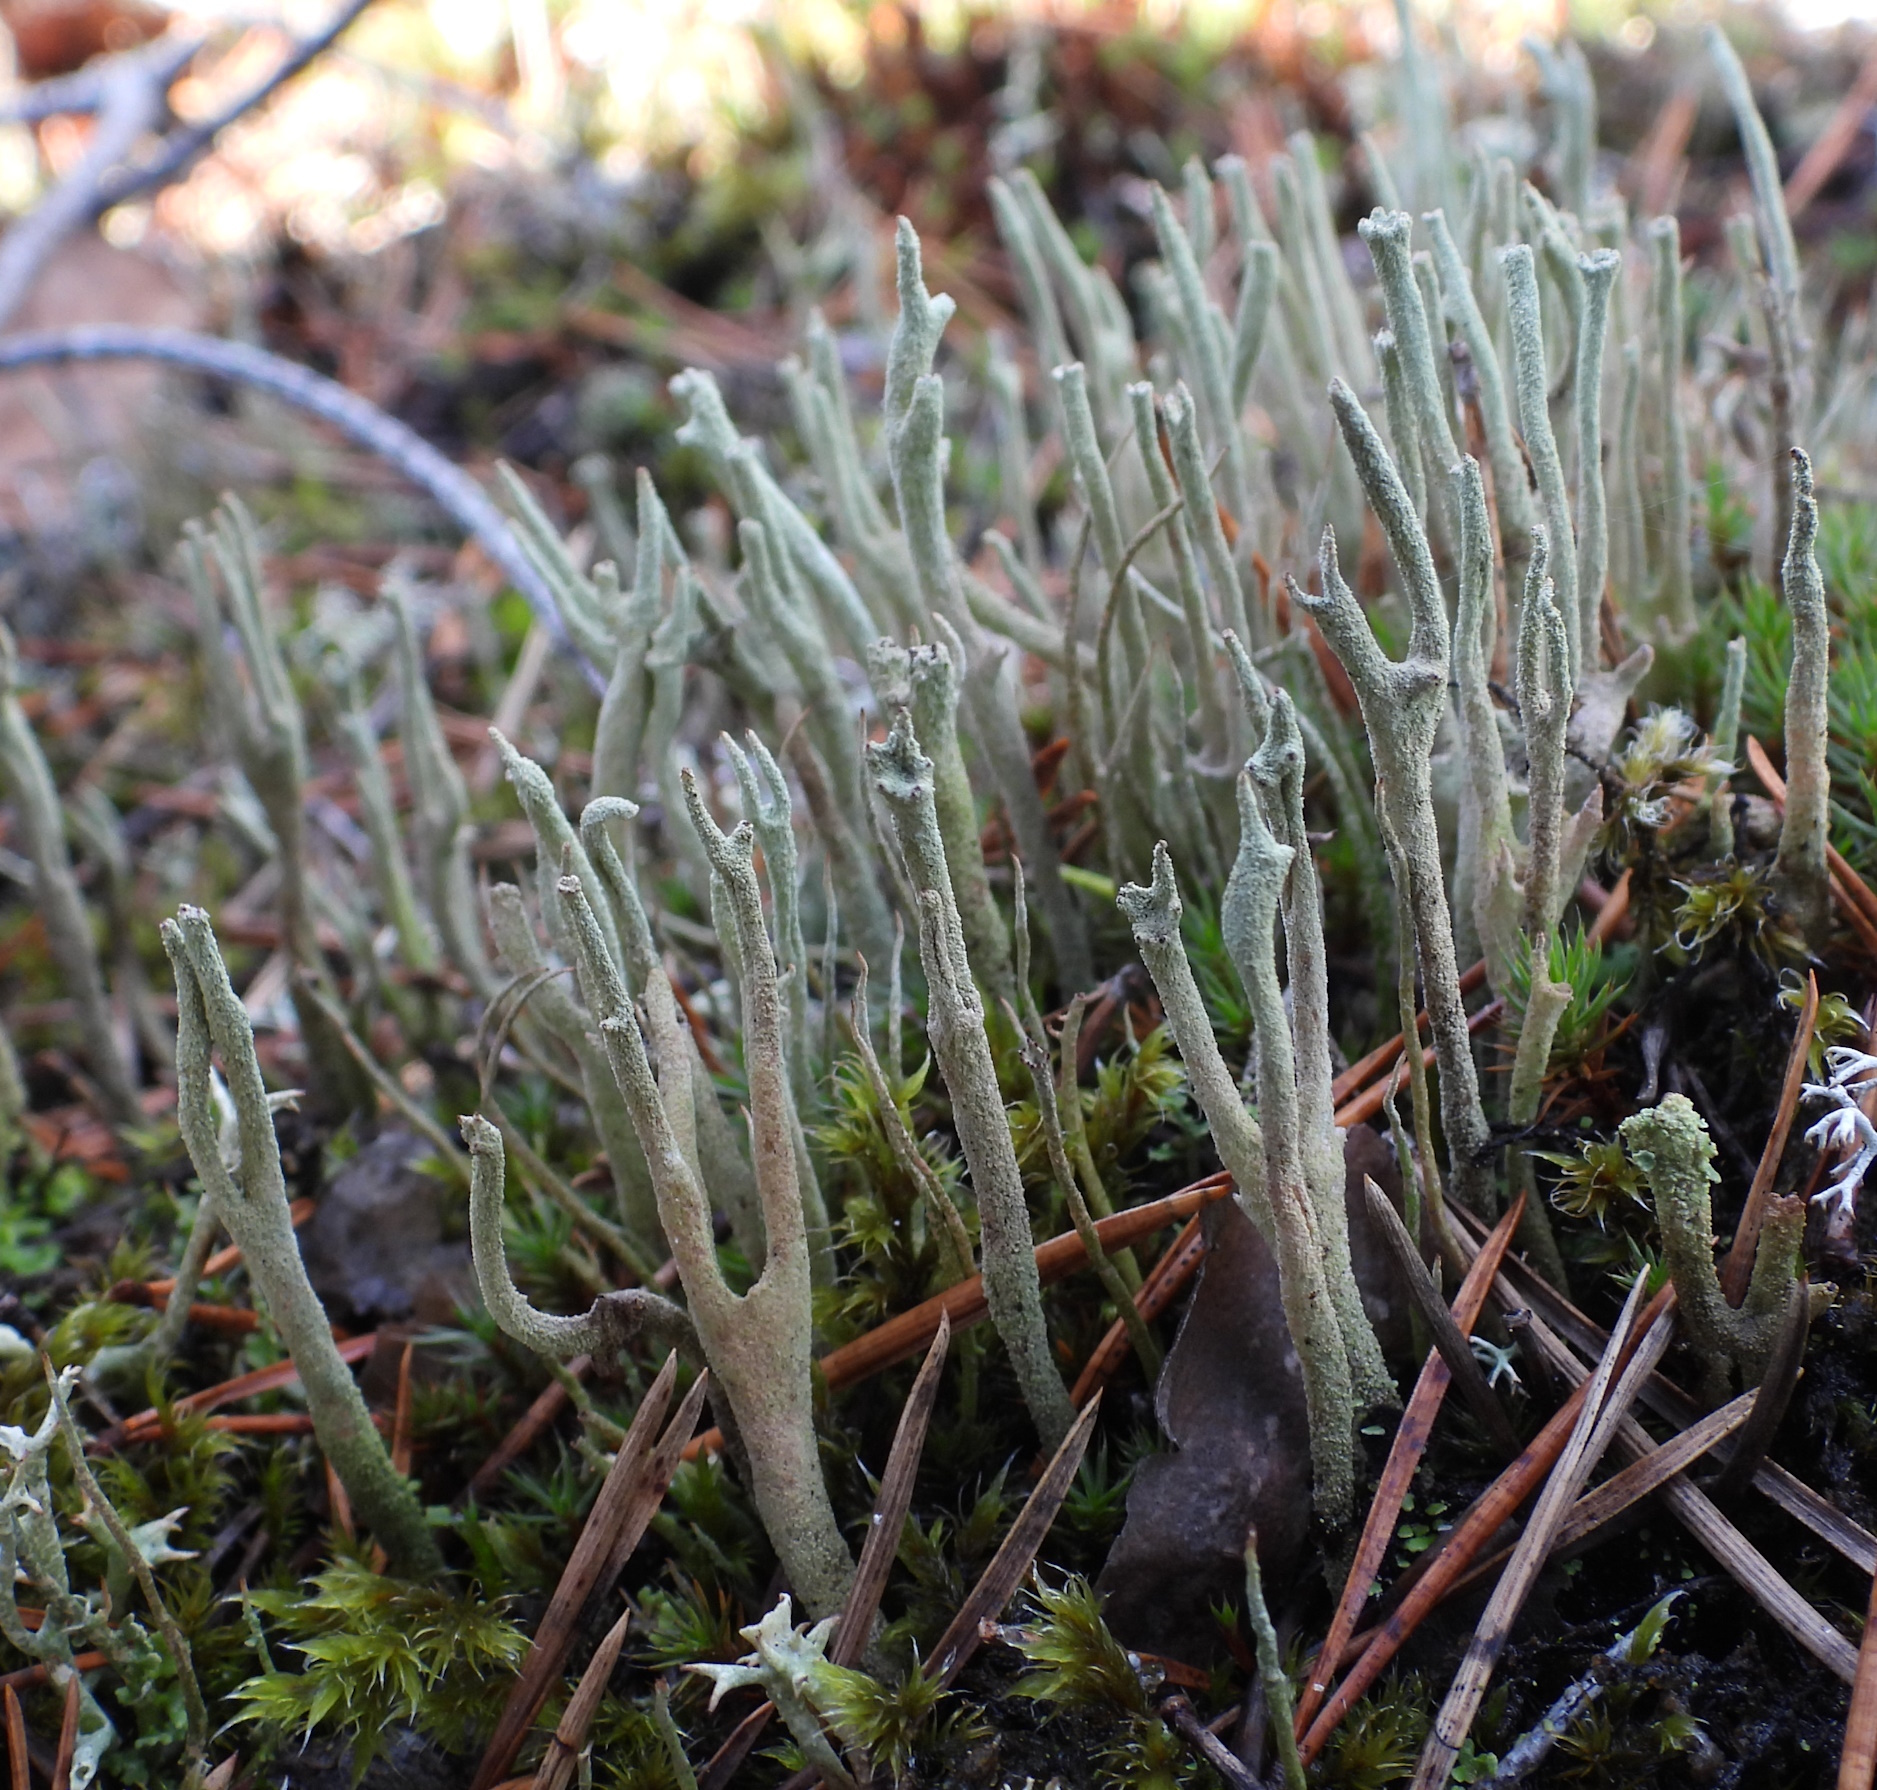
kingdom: Fungi
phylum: Ascomycota
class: Lecanoromycetes
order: Lecanorales
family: Cladoniaceae
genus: Cladonia
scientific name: Cladonia rei
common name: Wand lichen
